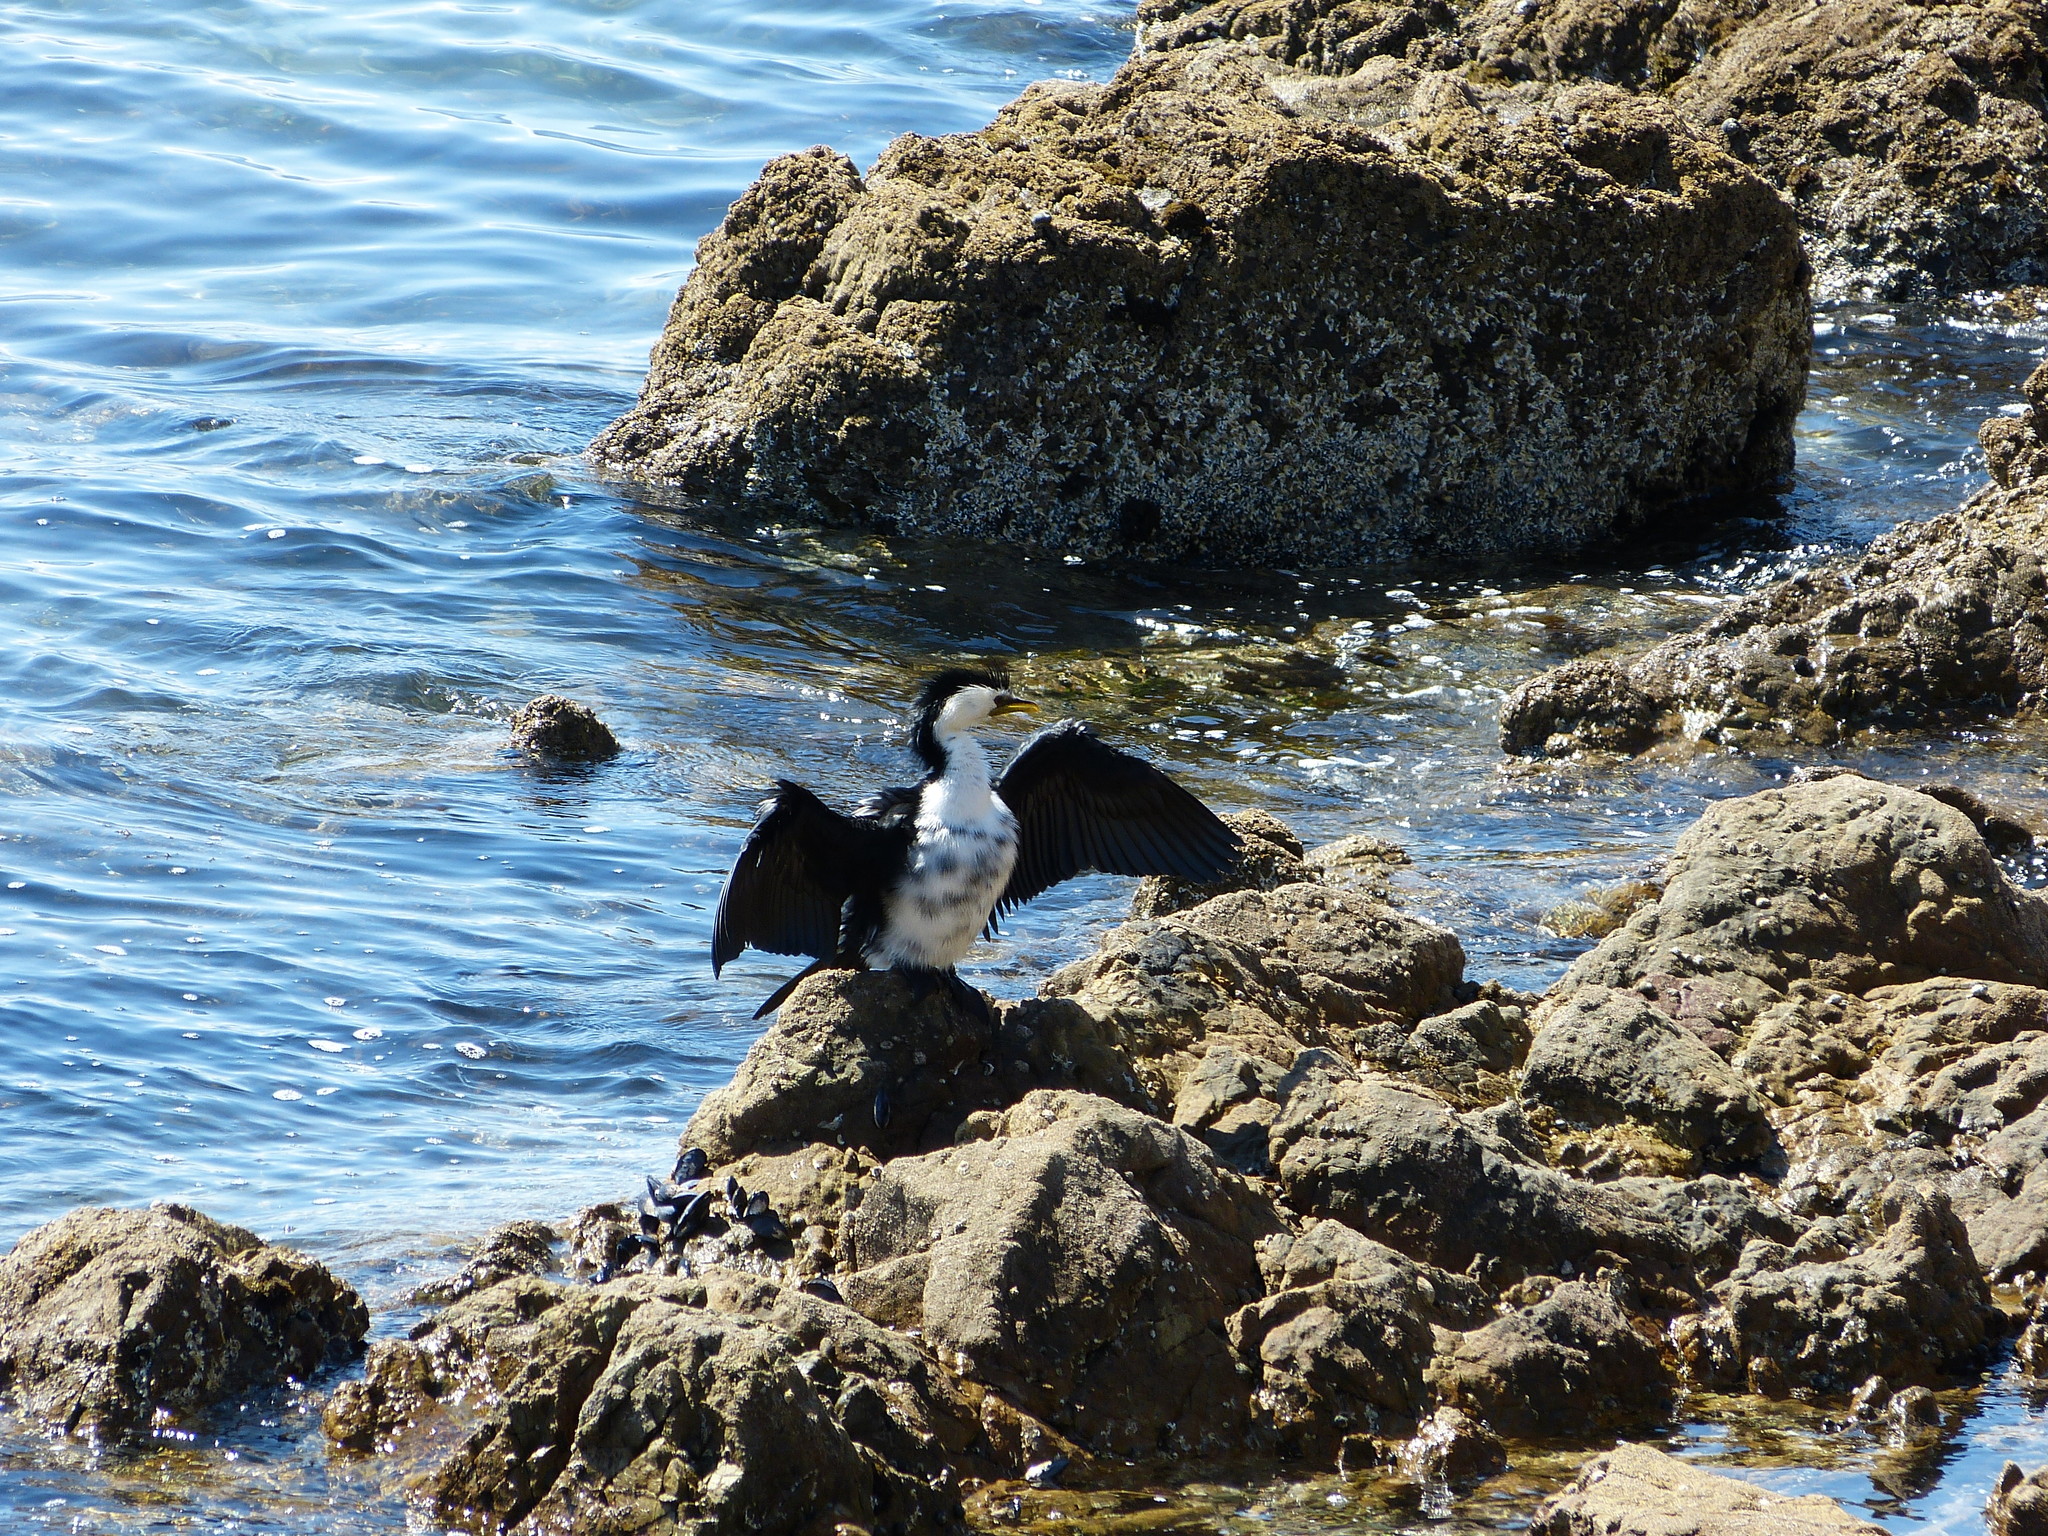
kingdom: Animalia
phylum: Chordata
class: Aves
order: Suliformes
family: Phalacrocoracidae
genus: Microcarbo
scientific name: Microcarbo melanoleucos
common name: Little pied cormorant
